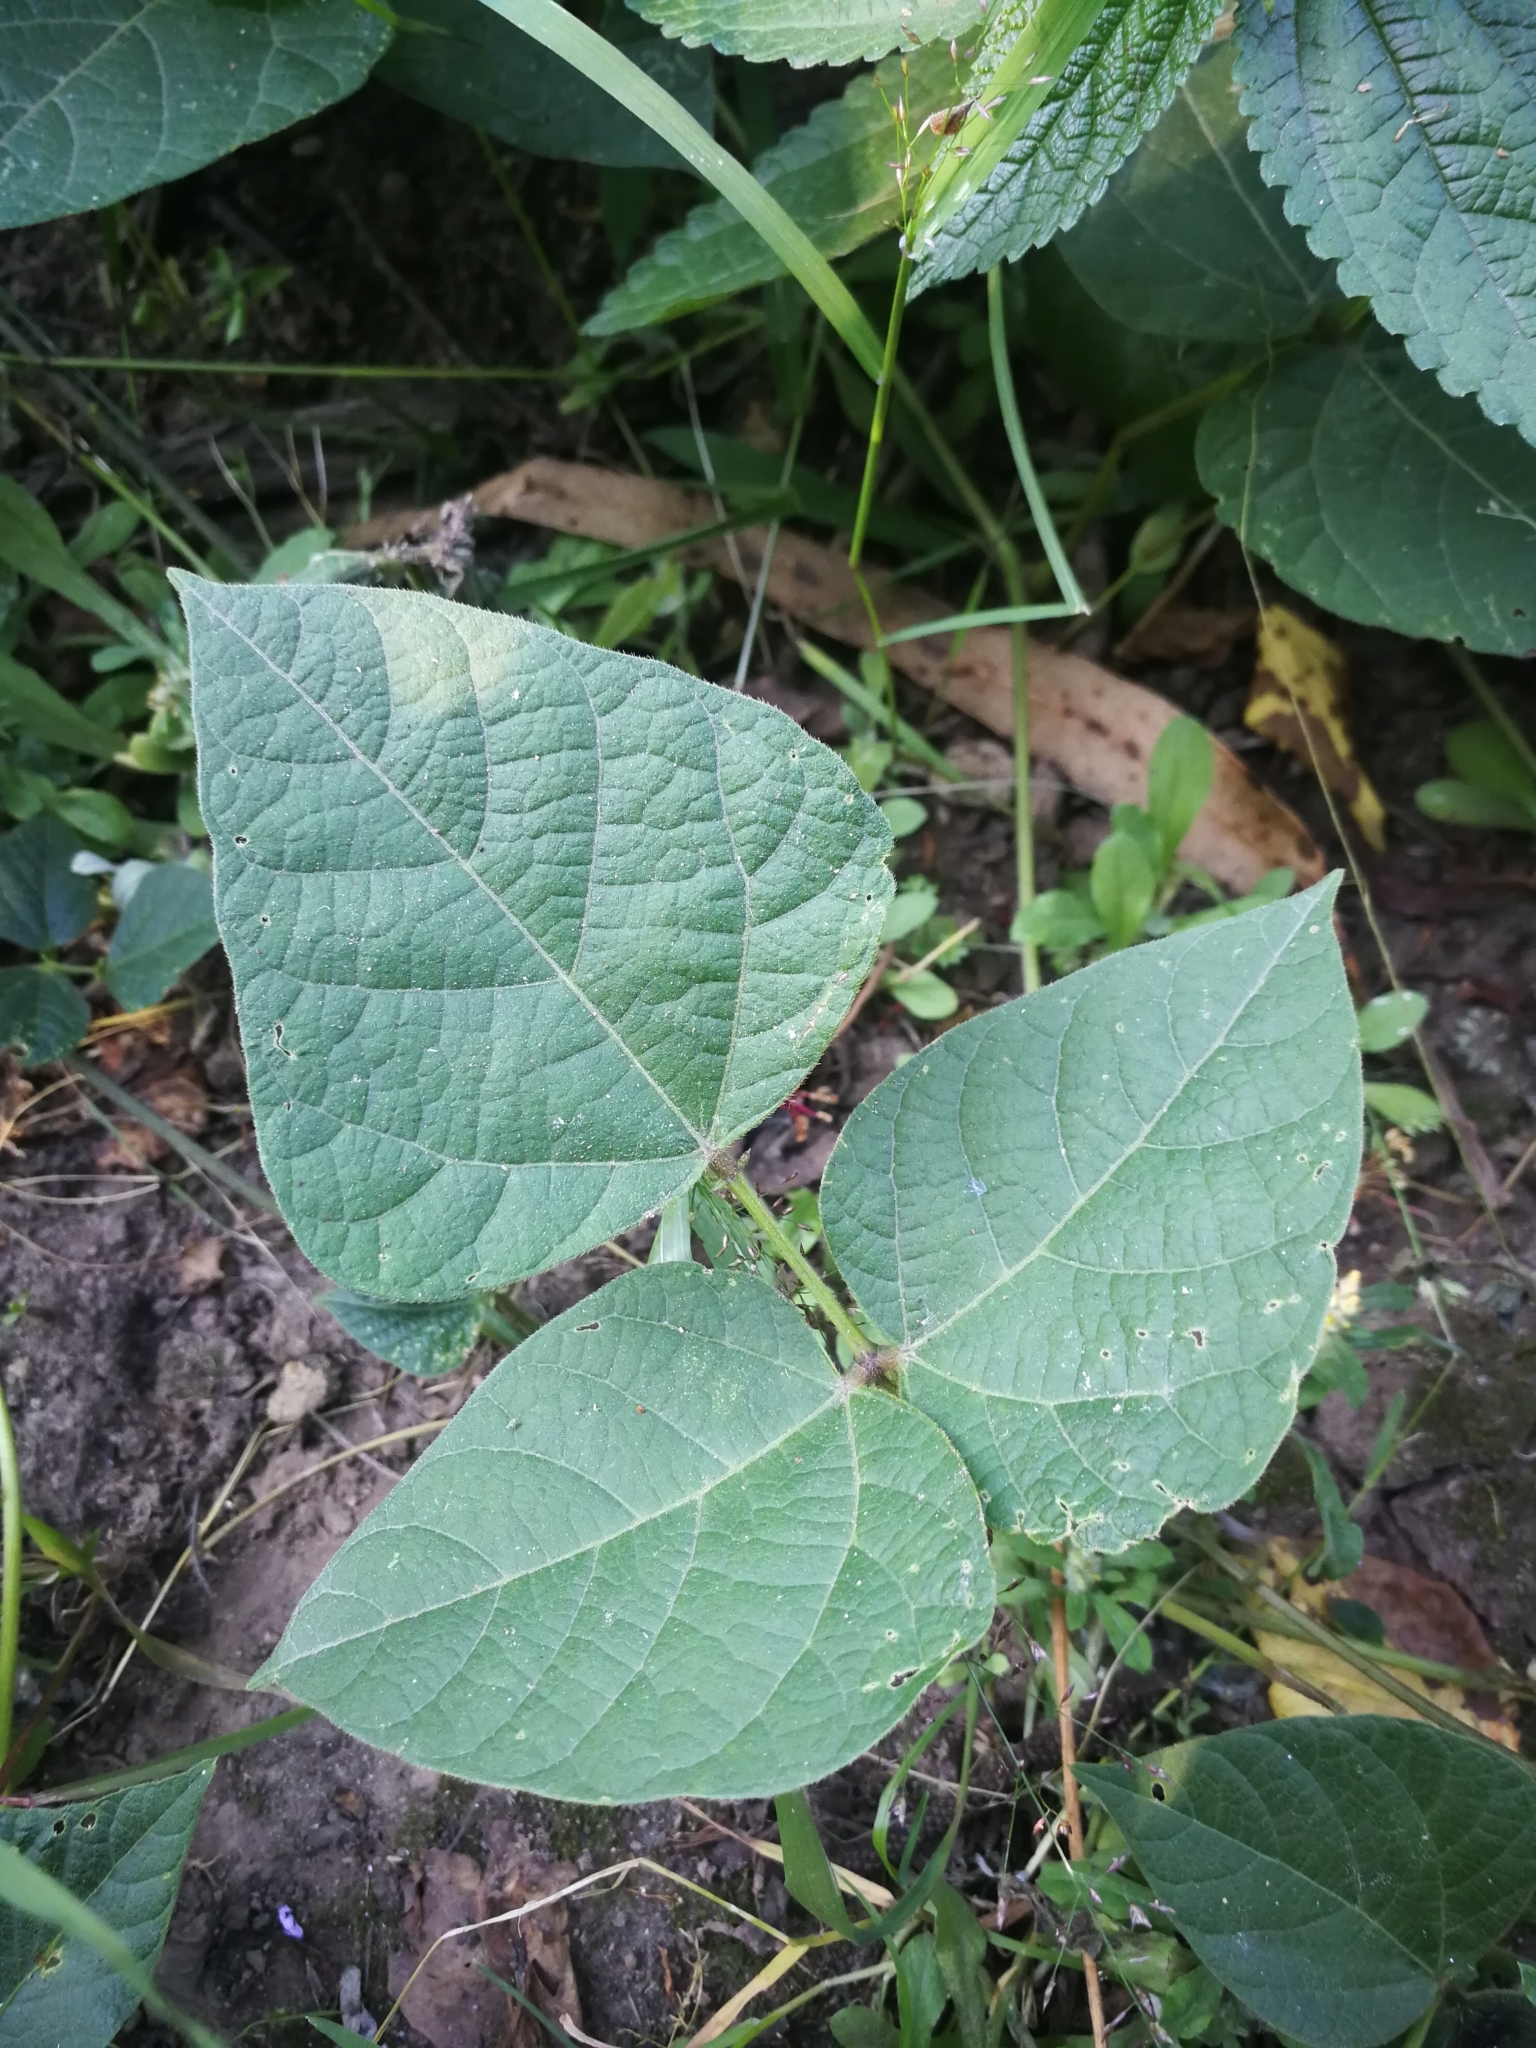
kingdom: Plantae
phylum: Tracheophyta
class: Magnoliopsida
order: Fabales
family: Fabaceae
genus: Phaseolus
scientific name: Phaseolus coccineus
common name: Runner bean
